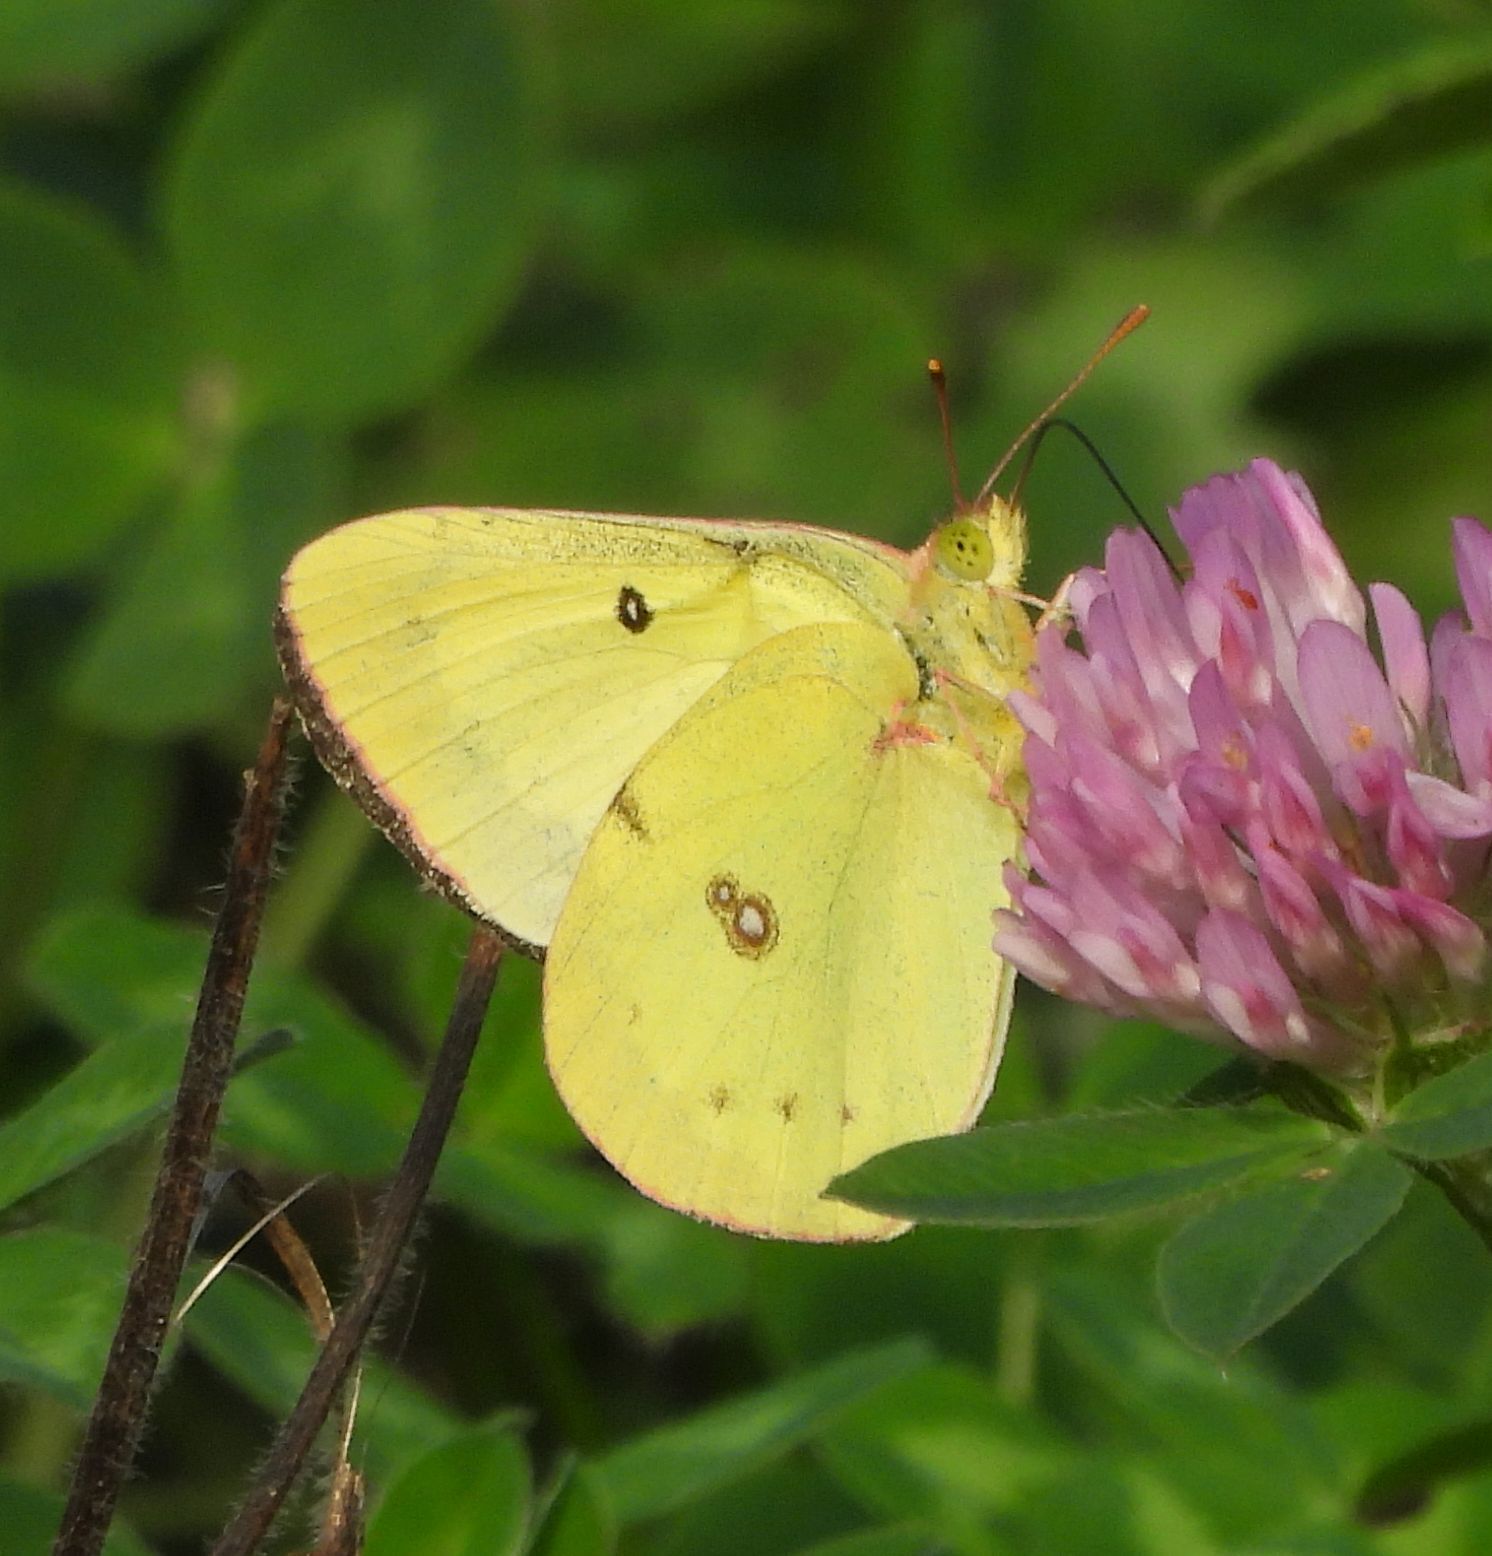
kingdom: Animalia
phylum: Arthropoda
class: Insecta
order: Lepidoptera
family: Pieridae
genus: Colias
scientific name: Colias philodice
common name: Clouded sulphur
